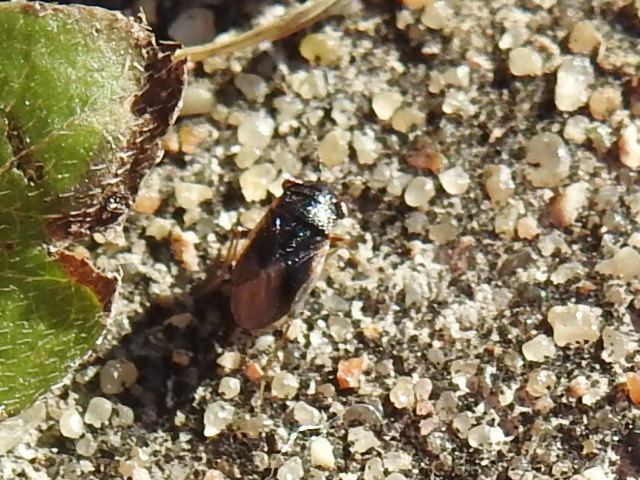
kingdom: Animalia
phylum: Arthropoda
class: Insecta
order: Hemiptera
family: Geocoridae
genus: Geocoris
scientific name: Geocoris uliginosus
